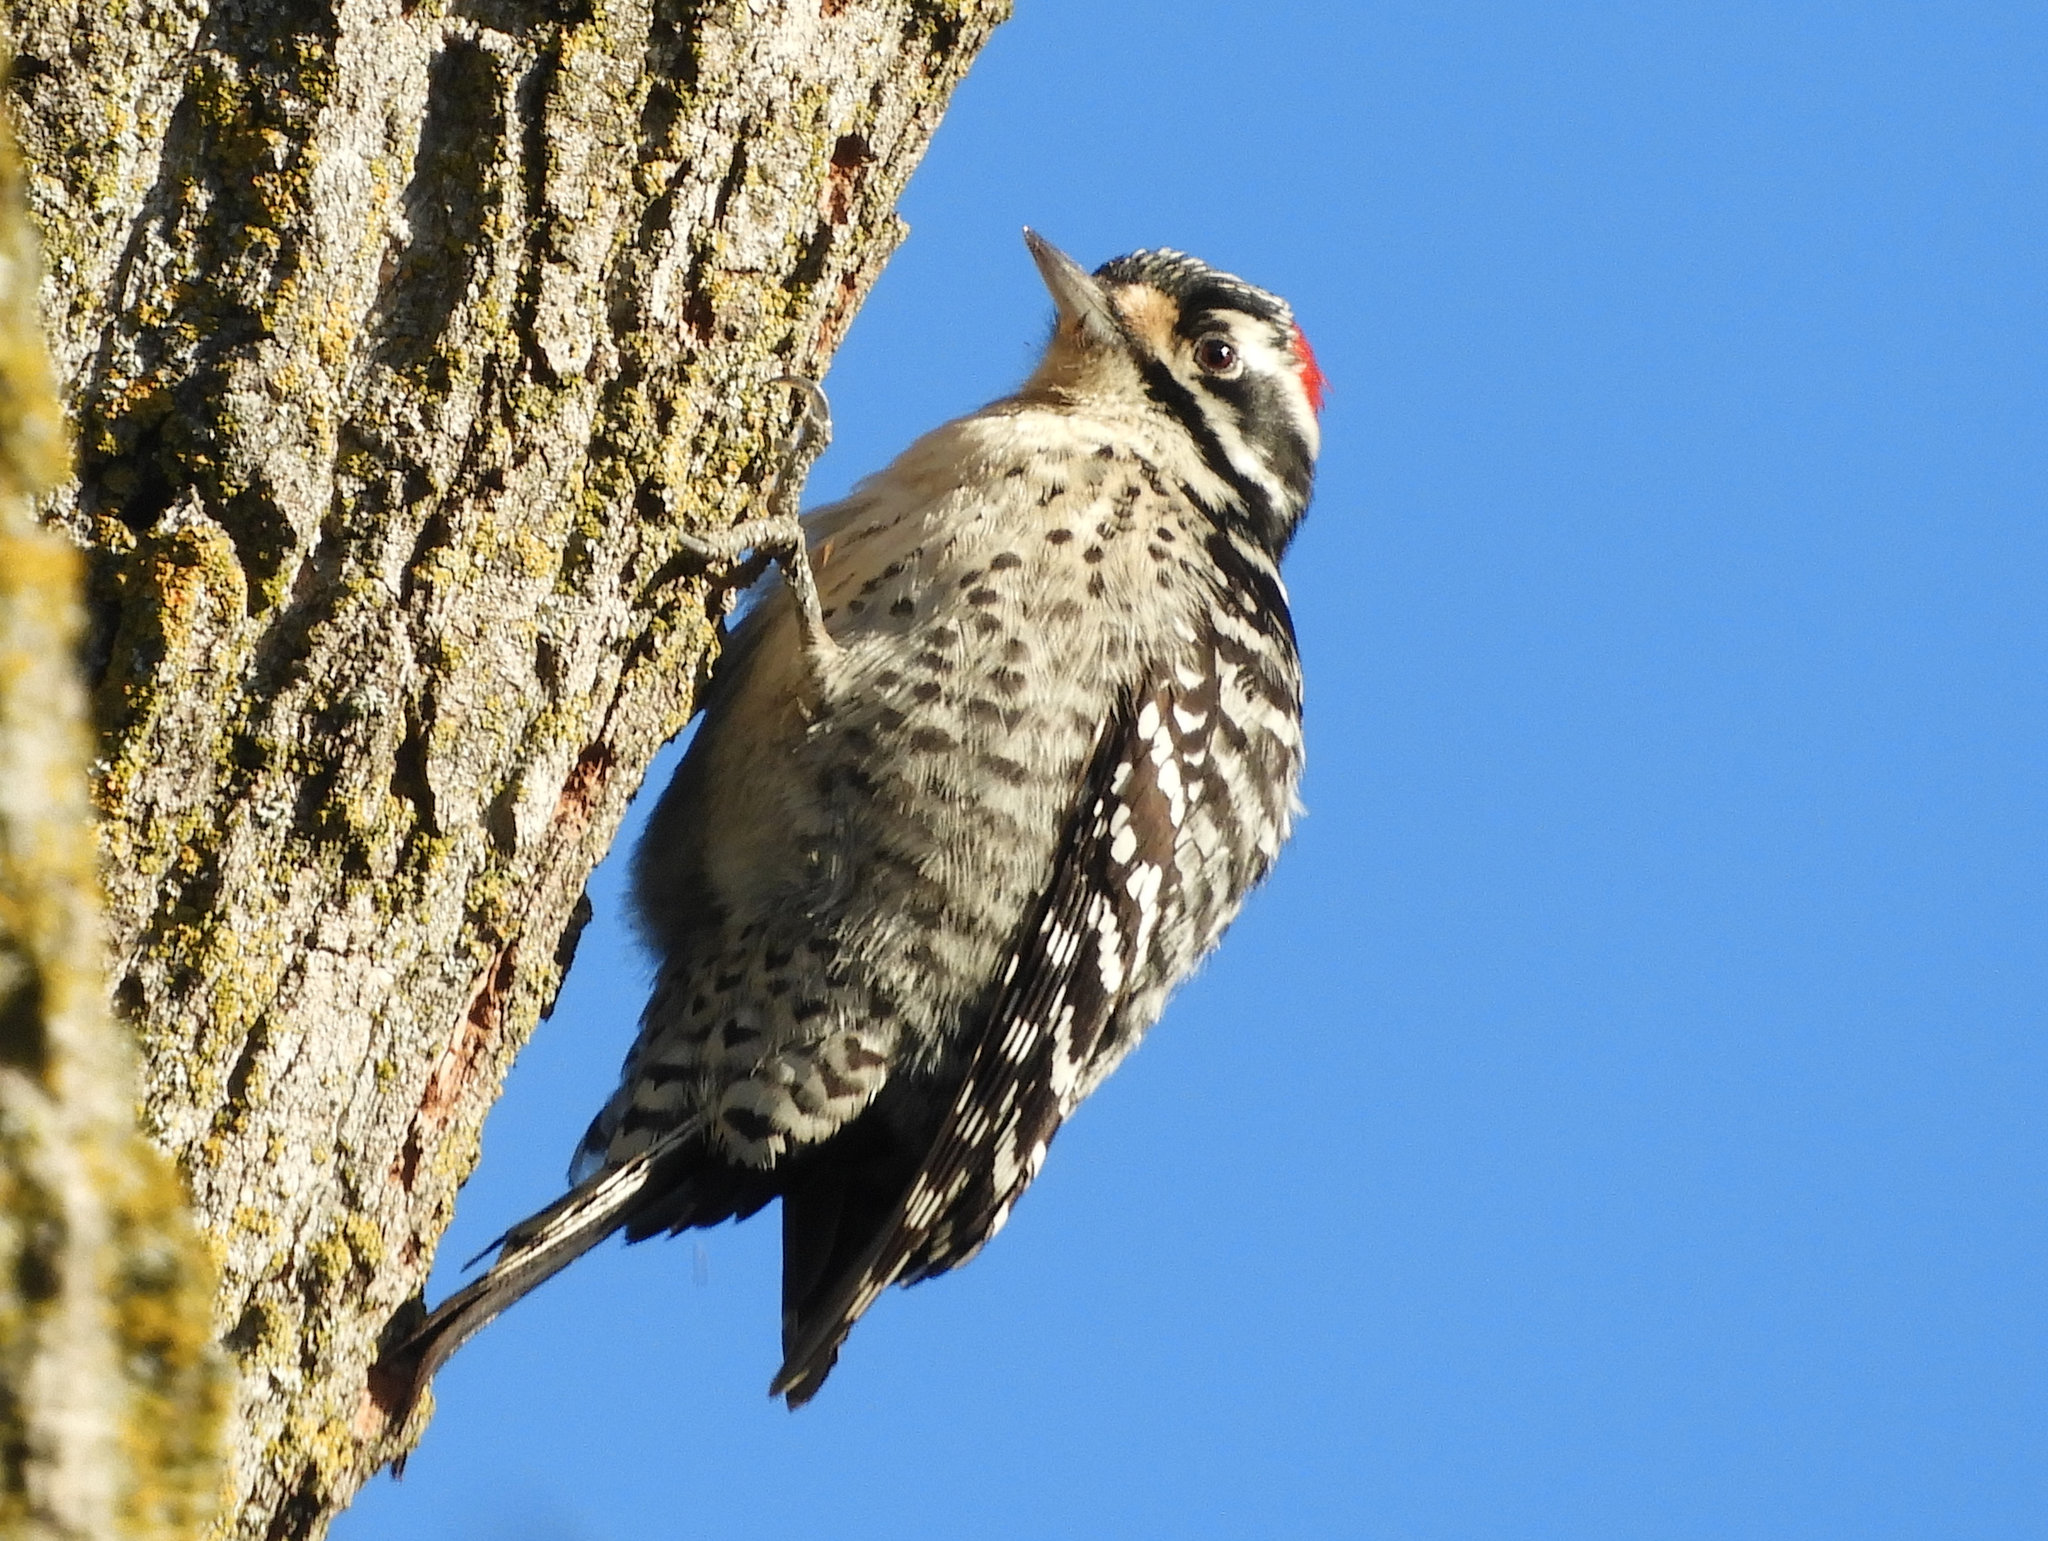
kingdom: Animalia
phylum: Chordata
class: Aves
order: Piciformes
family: Picidae
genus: Dryobates
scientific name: Dryobates nuttallii
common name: Nuttall's woodpecker
